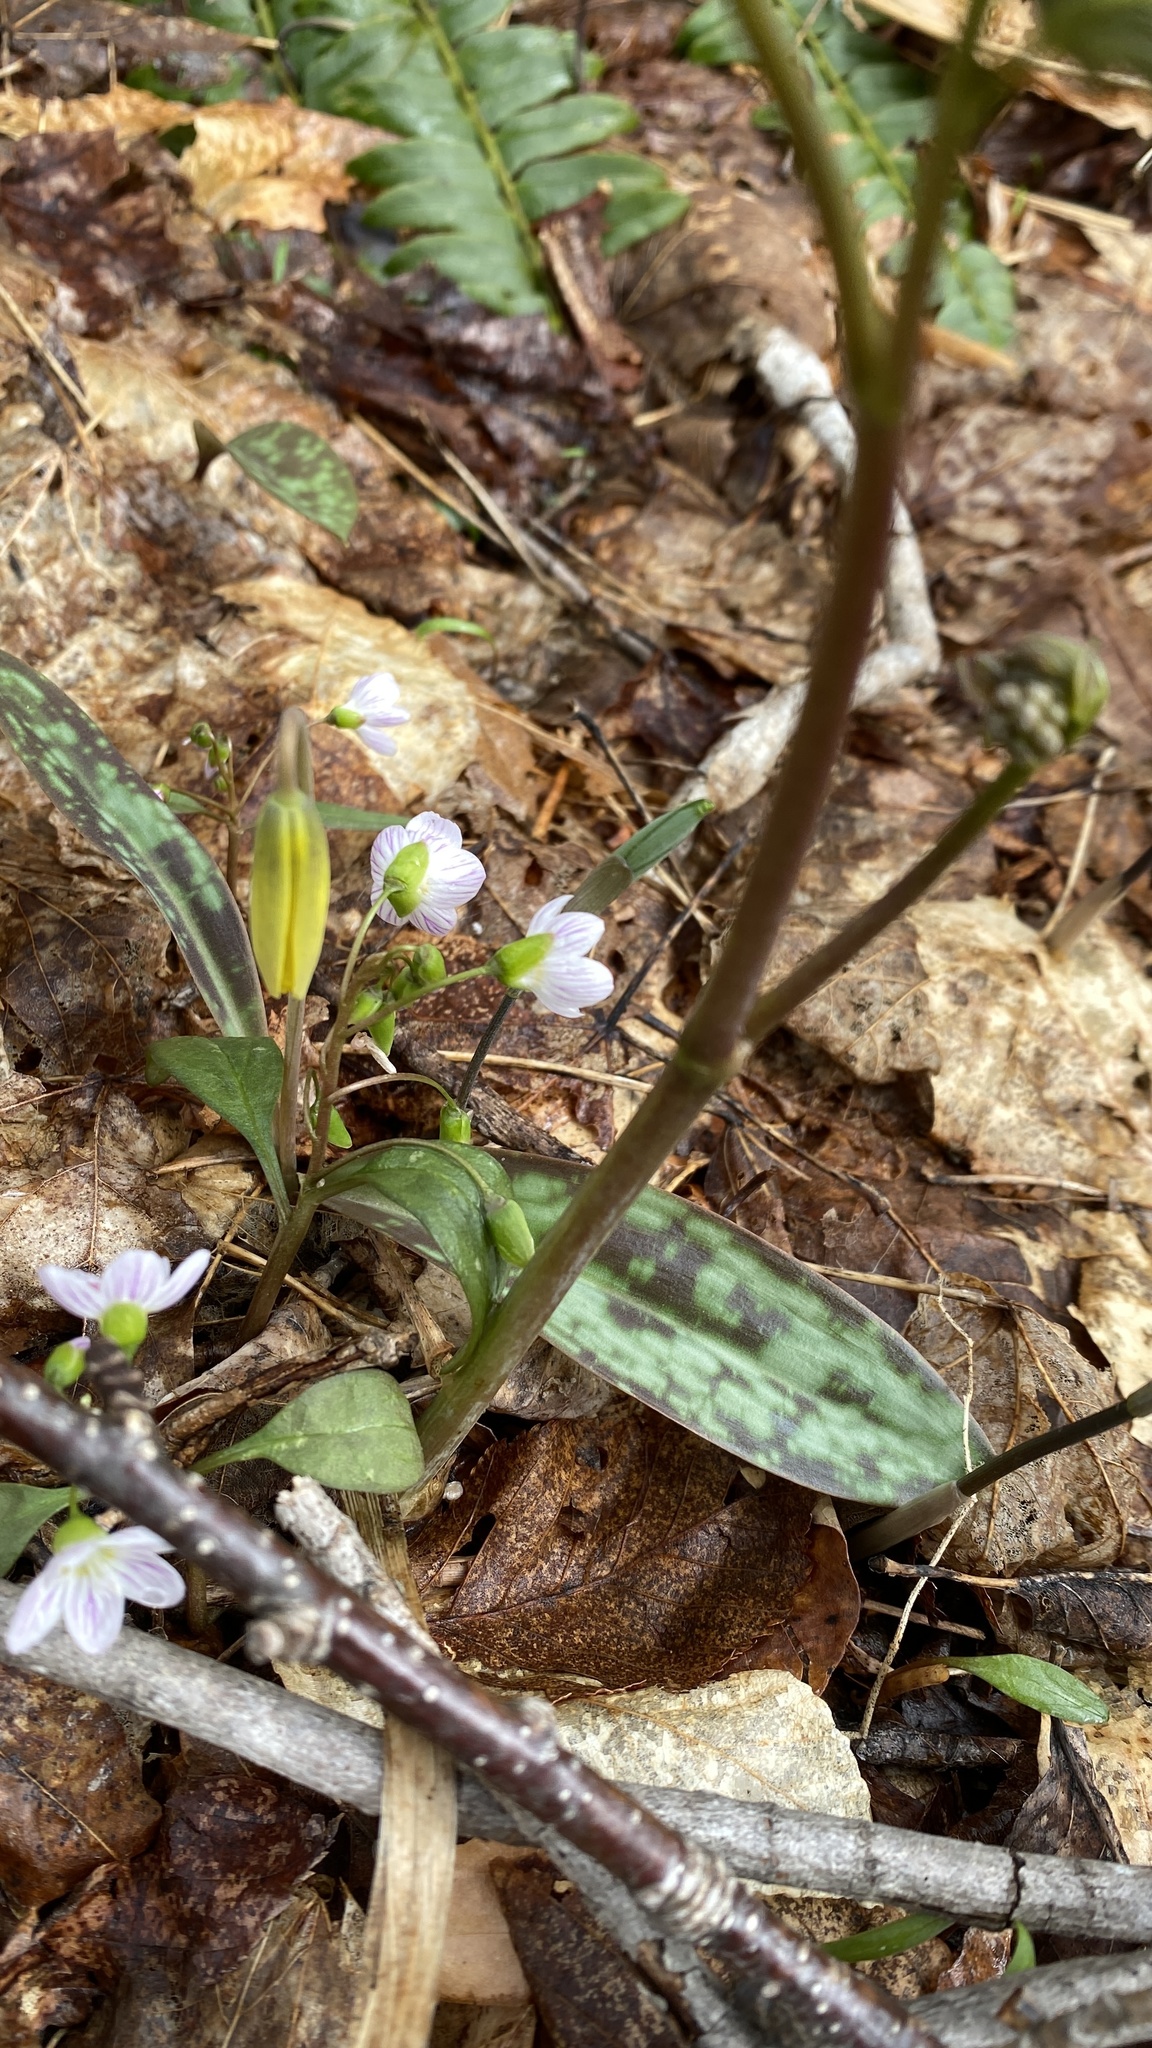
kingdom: Plantae
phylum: Tracheophyta
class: Liliopsida
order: Liliales
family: Liliaceae
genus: Erythronium
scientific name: Erythronium americanum
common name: Yellow adder's-tongue
